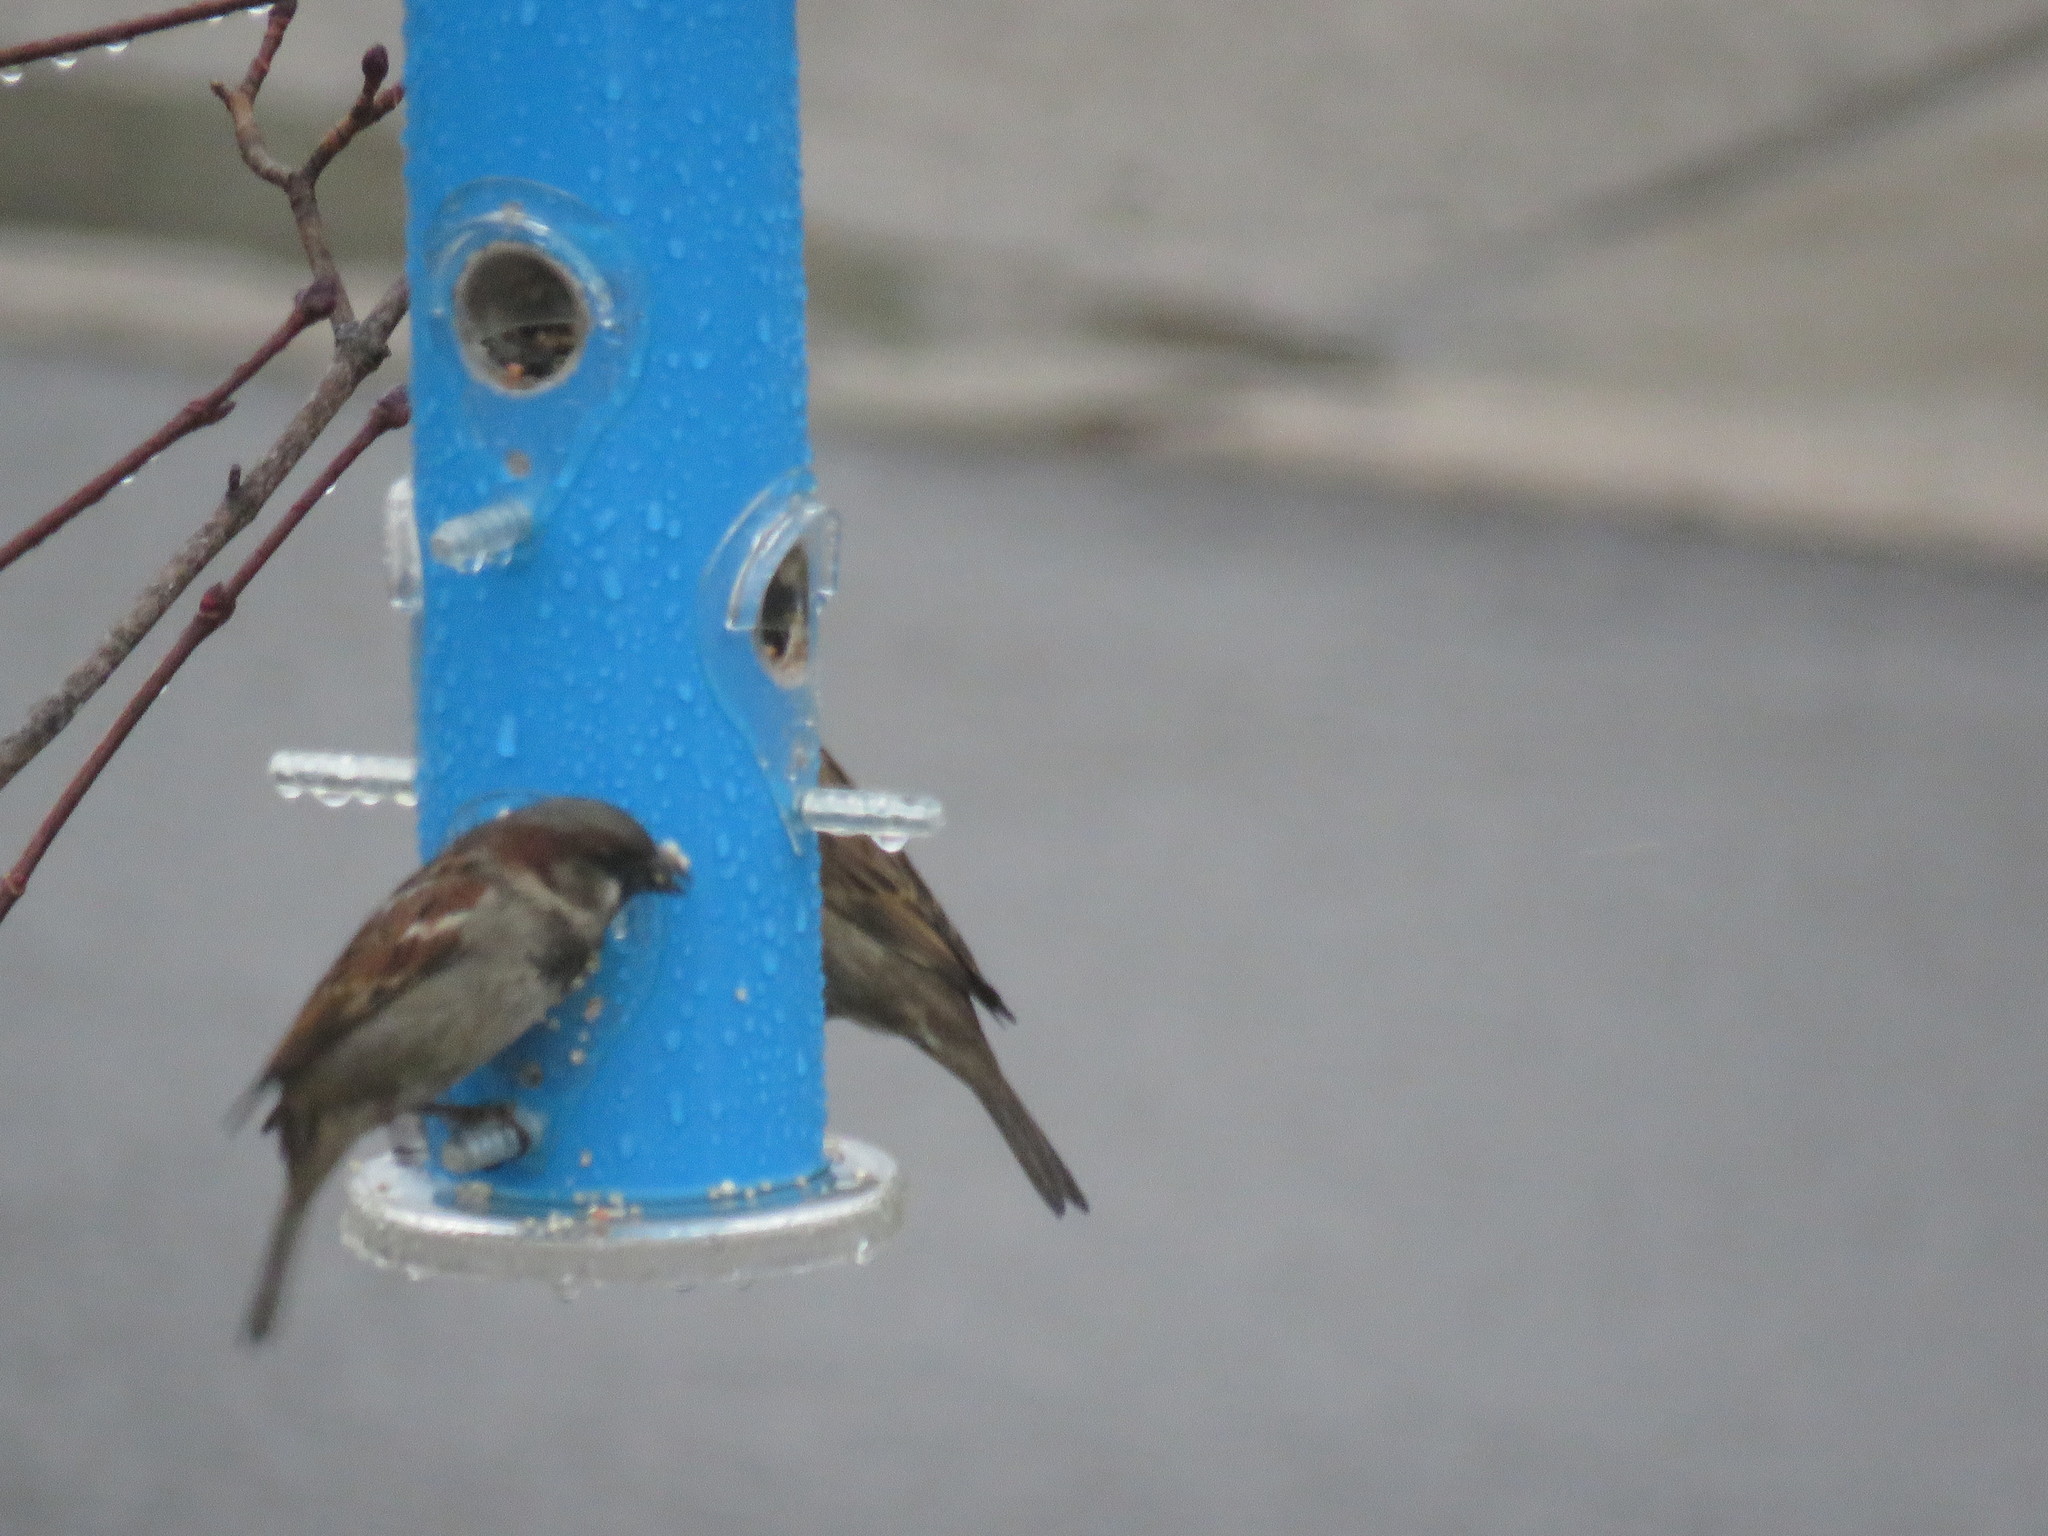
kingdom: Animalia
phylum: Chordata
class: Aves
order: Passeriformes
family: Passeridae
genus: Passer
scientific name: Passer domesticus
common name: House sparrow
